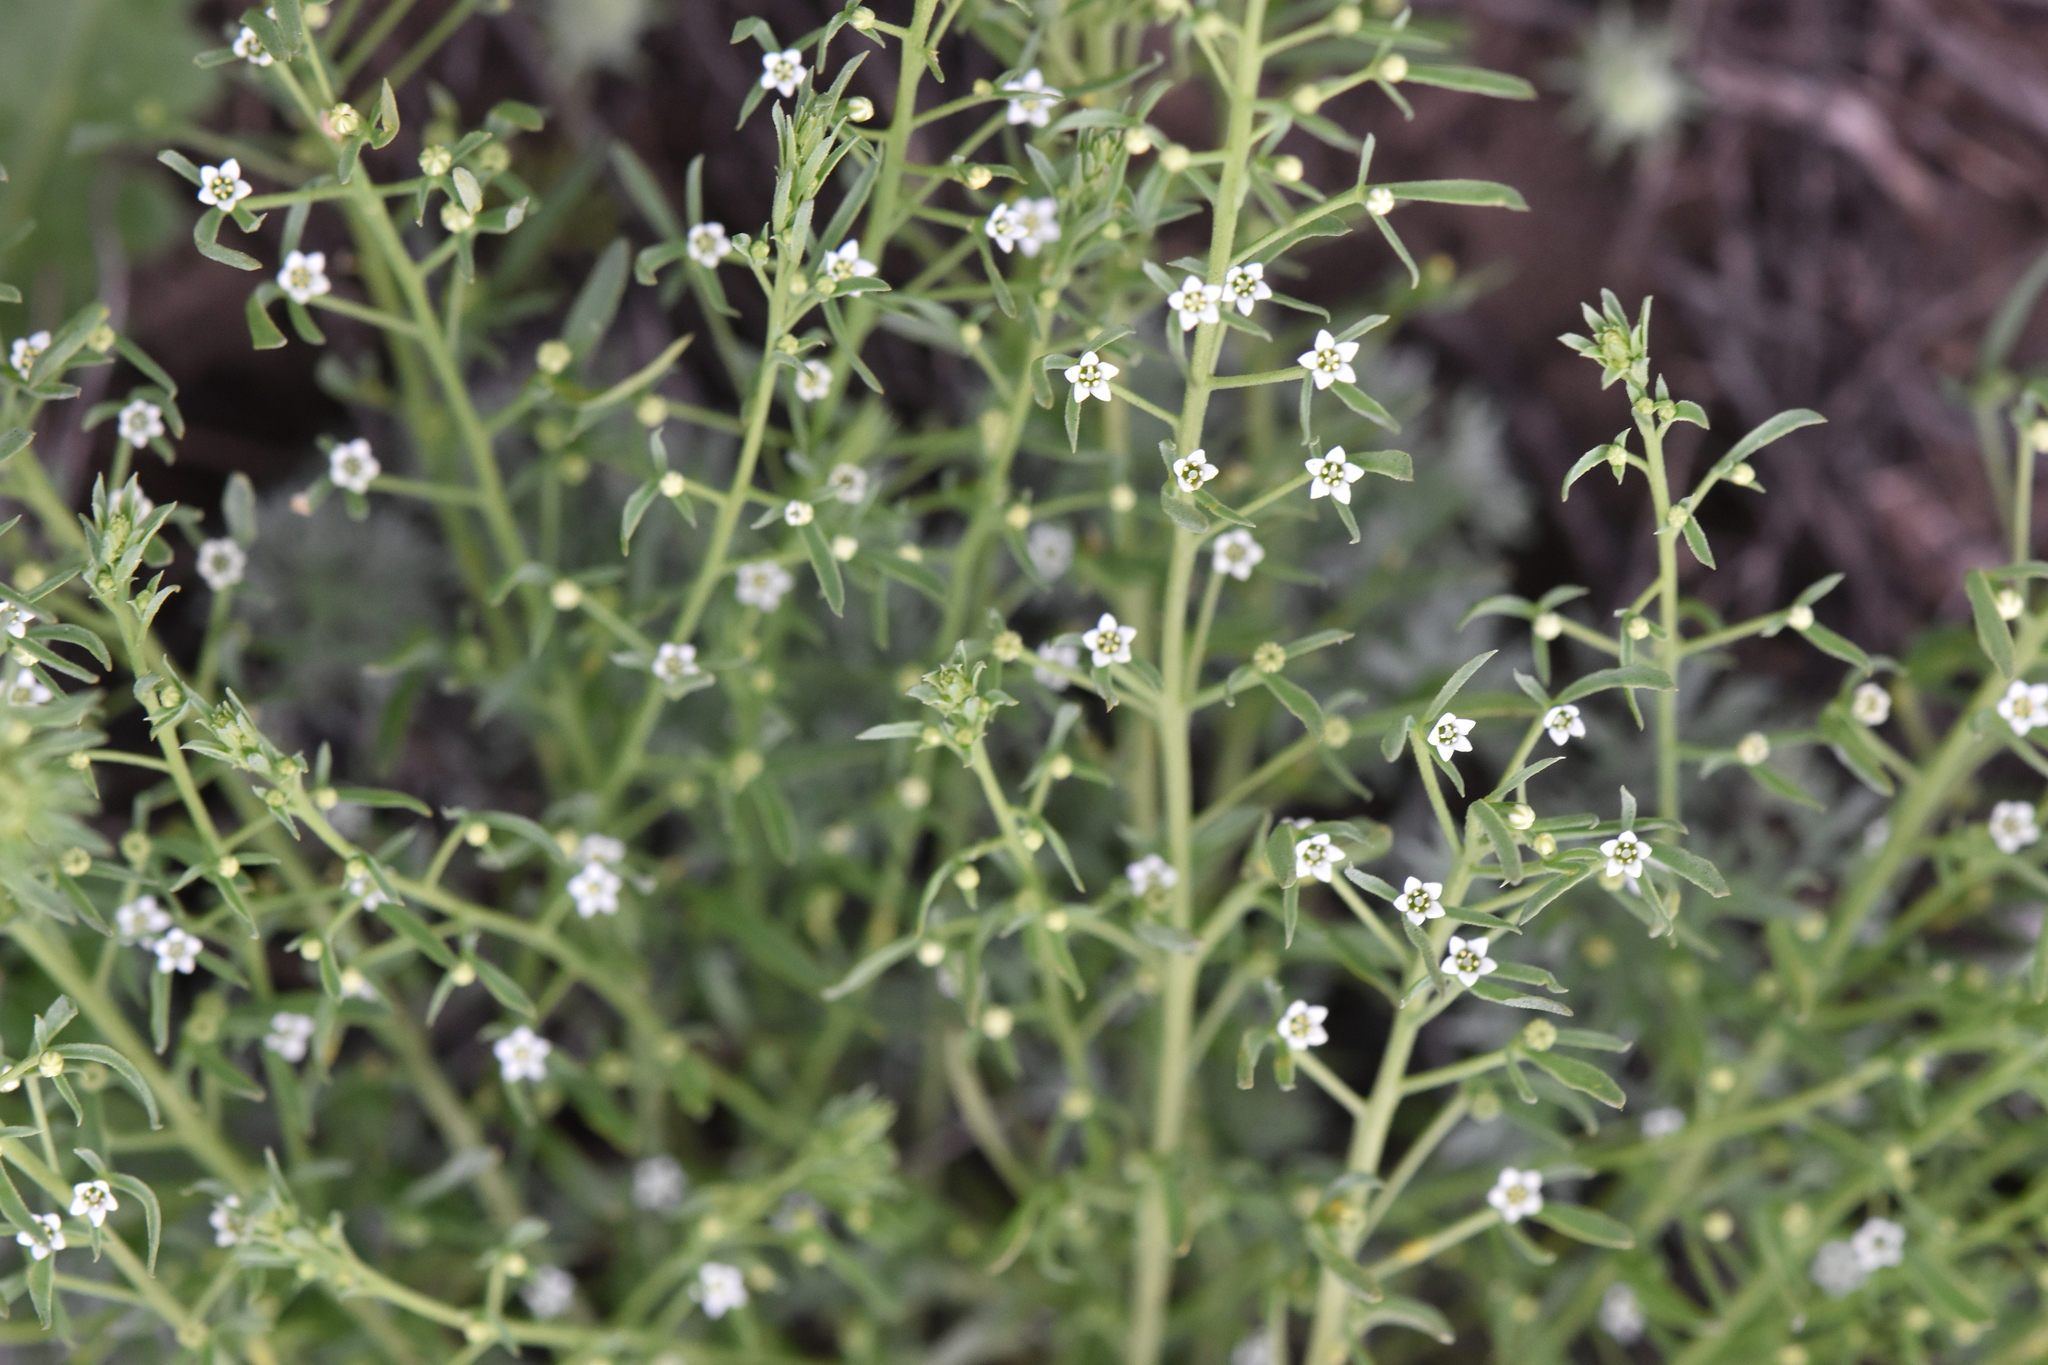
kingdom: Plantae
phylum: Tracheophyta
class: Magnoliopsida
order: Santalales
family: Thesiaceae
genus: Thesium
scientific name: Thesium ramosum
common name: Field thesium
